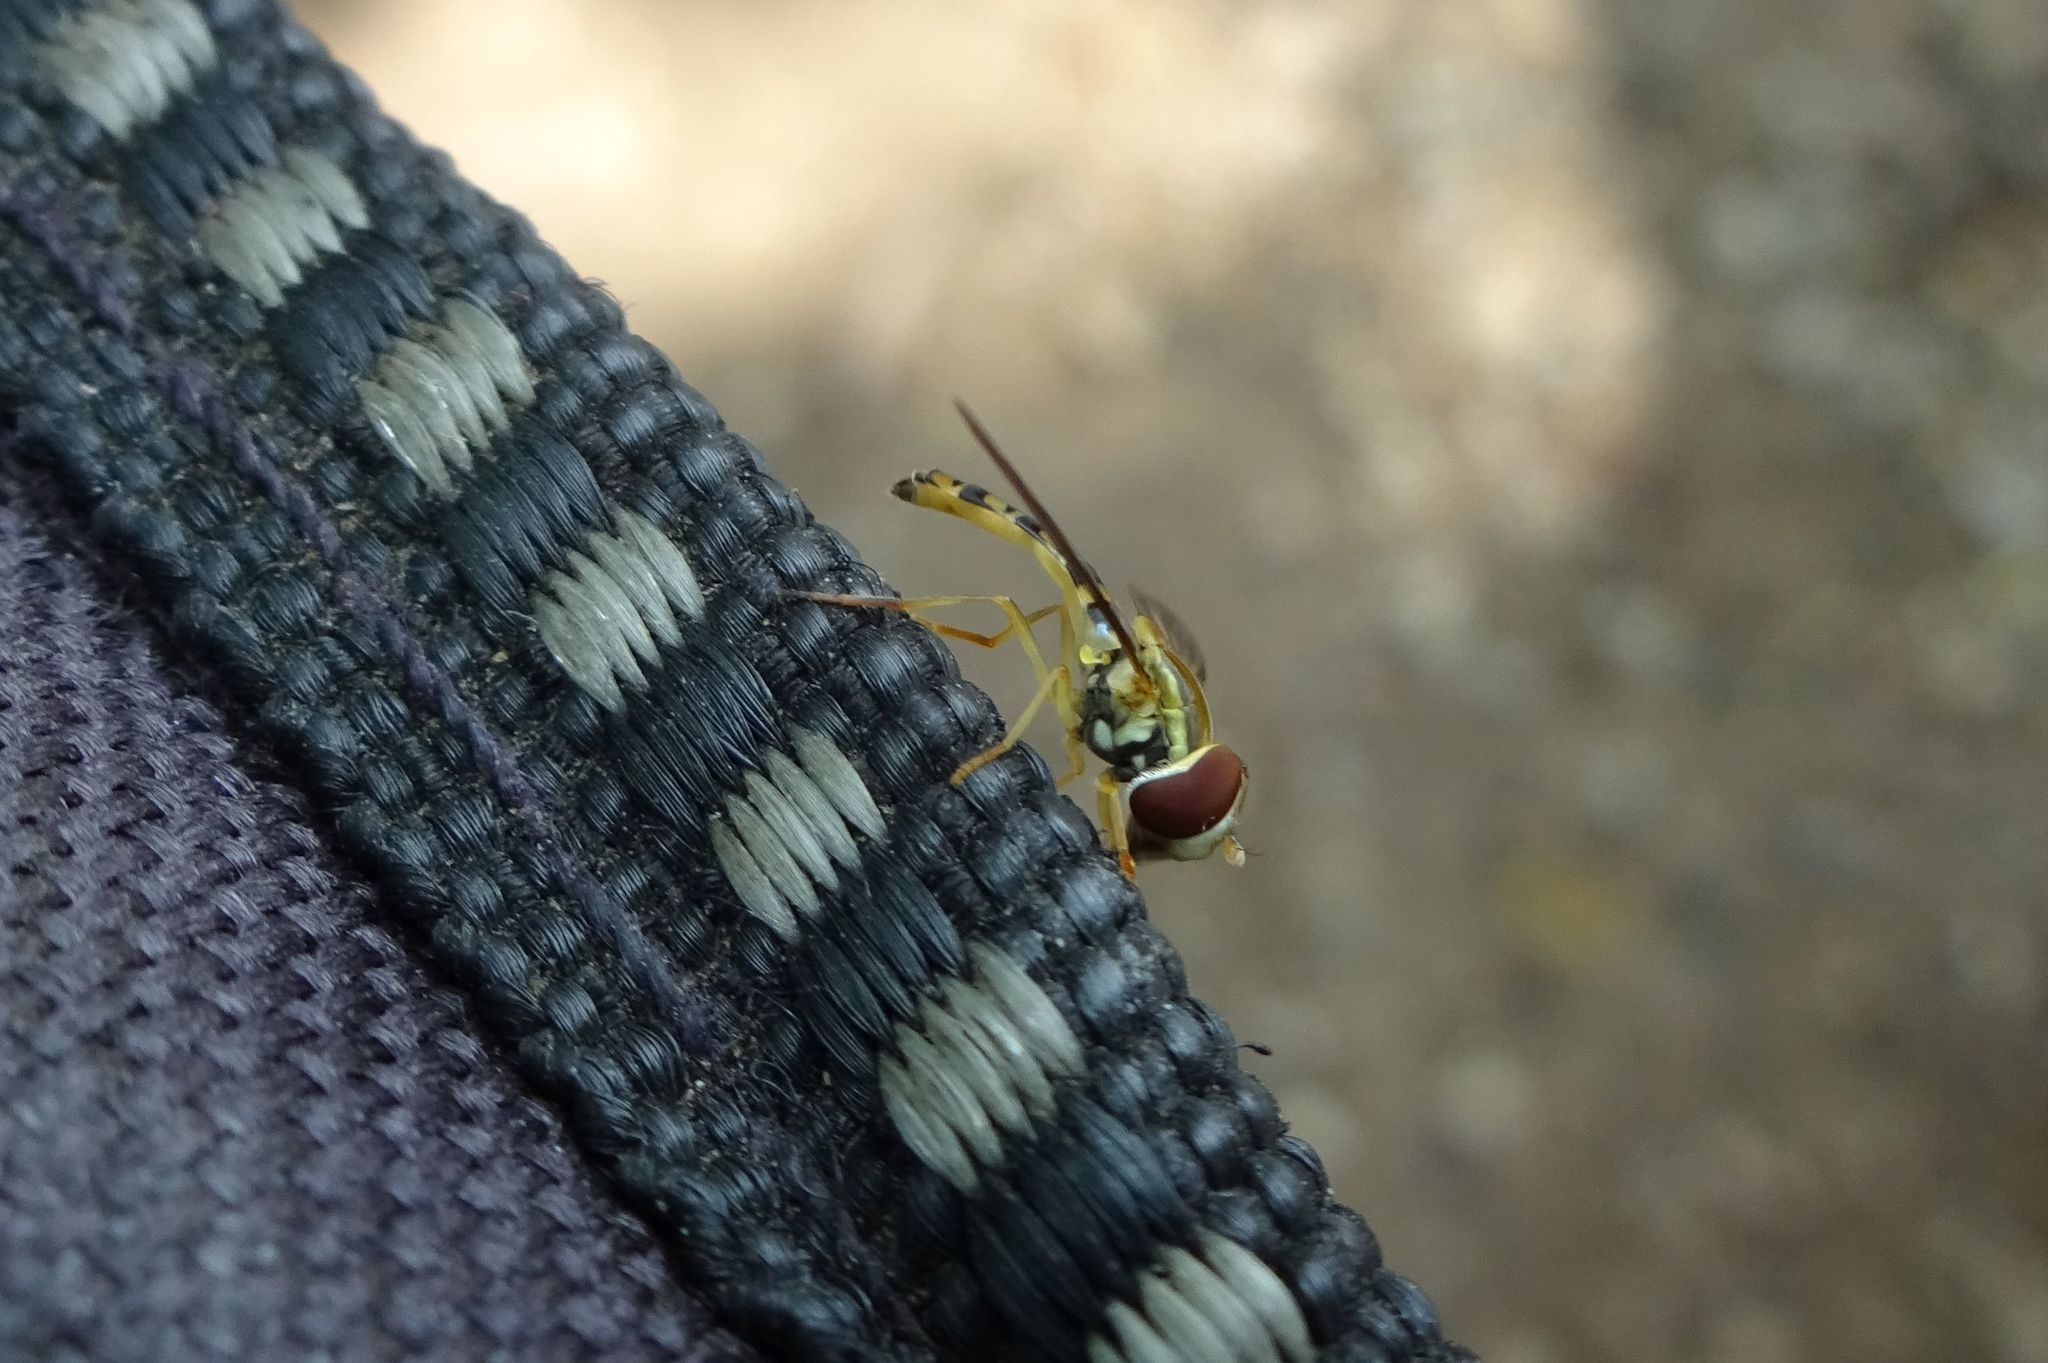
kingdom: Animalia
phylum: Arthropoda
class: Insecta
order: Diptera
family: Syrphidae
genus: Toxomerus
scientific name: Toxomerus politus
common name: Maize calligrapher
